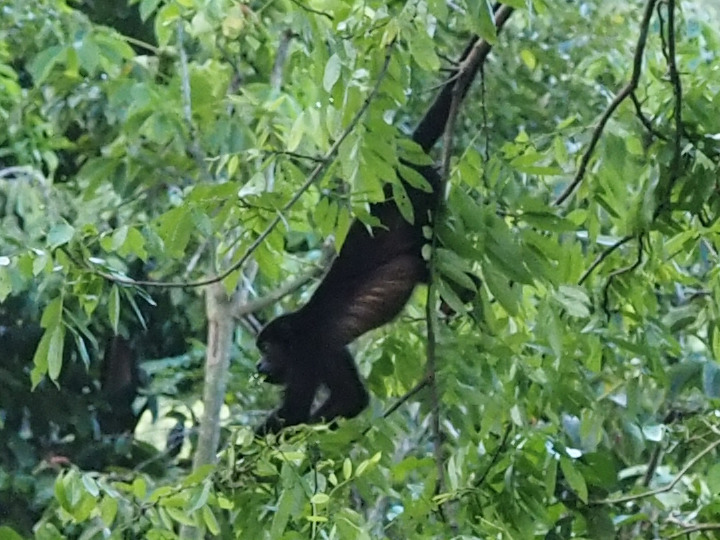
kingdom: Animalia
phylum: Chordata
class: Mammalia
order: Primates
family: Atelidae
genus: Alouatta
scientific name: Alouatta palliata
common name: Mantled howler
